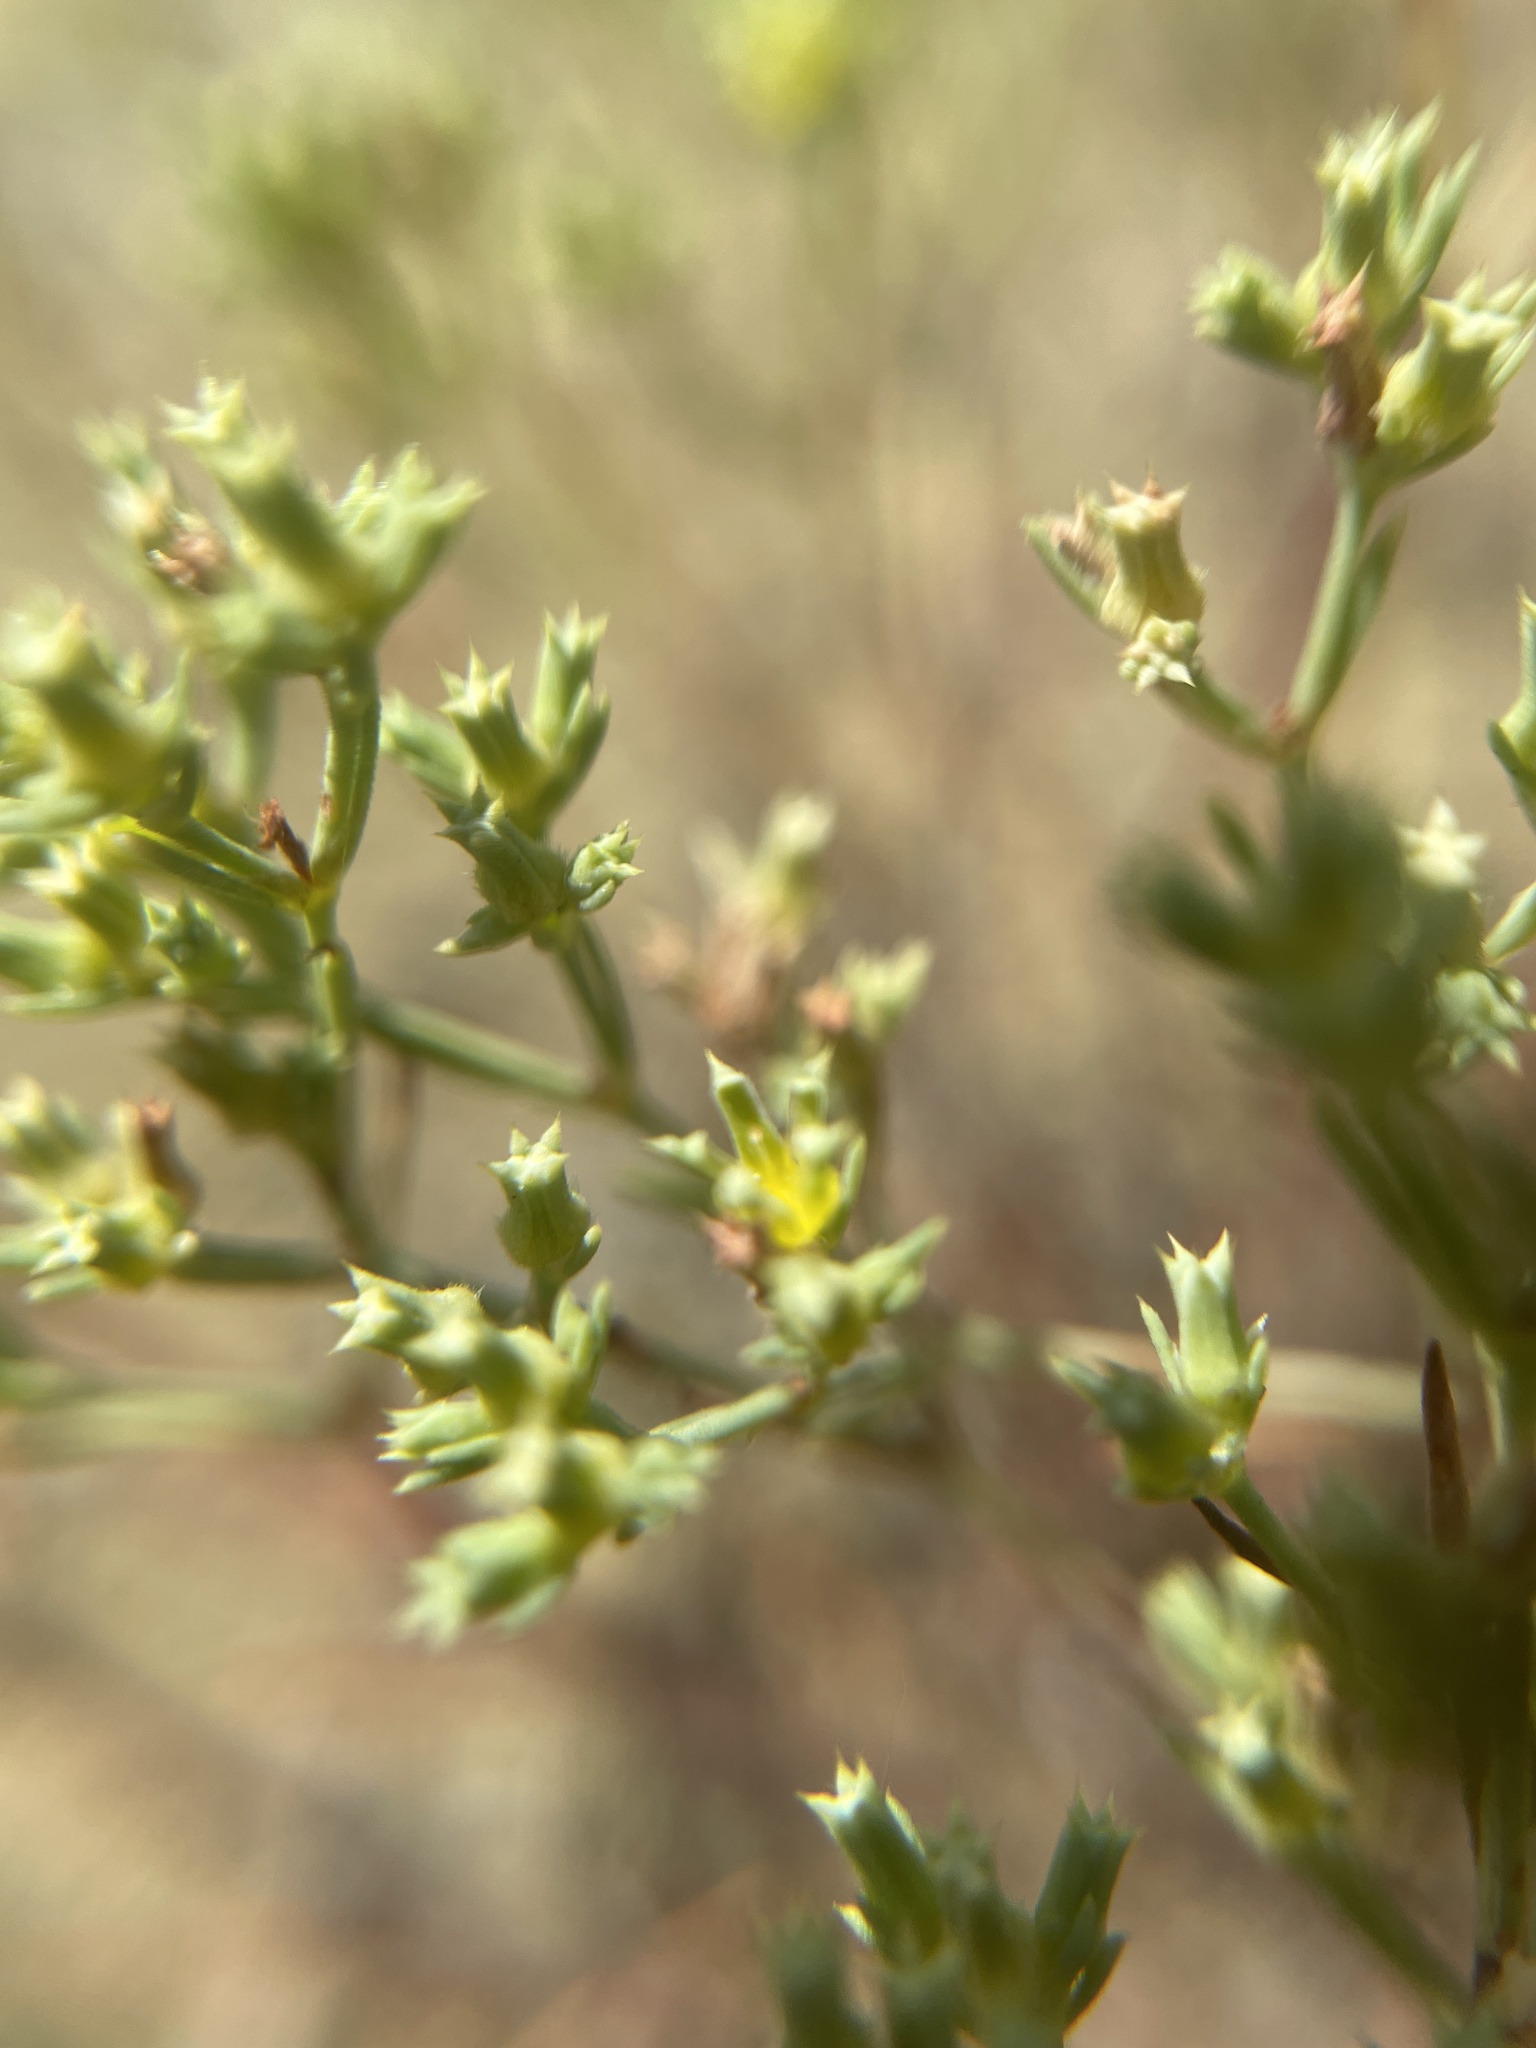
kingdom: Plantae
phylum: Tracheophyta
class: Magnoliopsida
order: Caryophyllales
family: Caryophyllaceae
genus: Paronychia
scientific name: Paronychia jamesii
